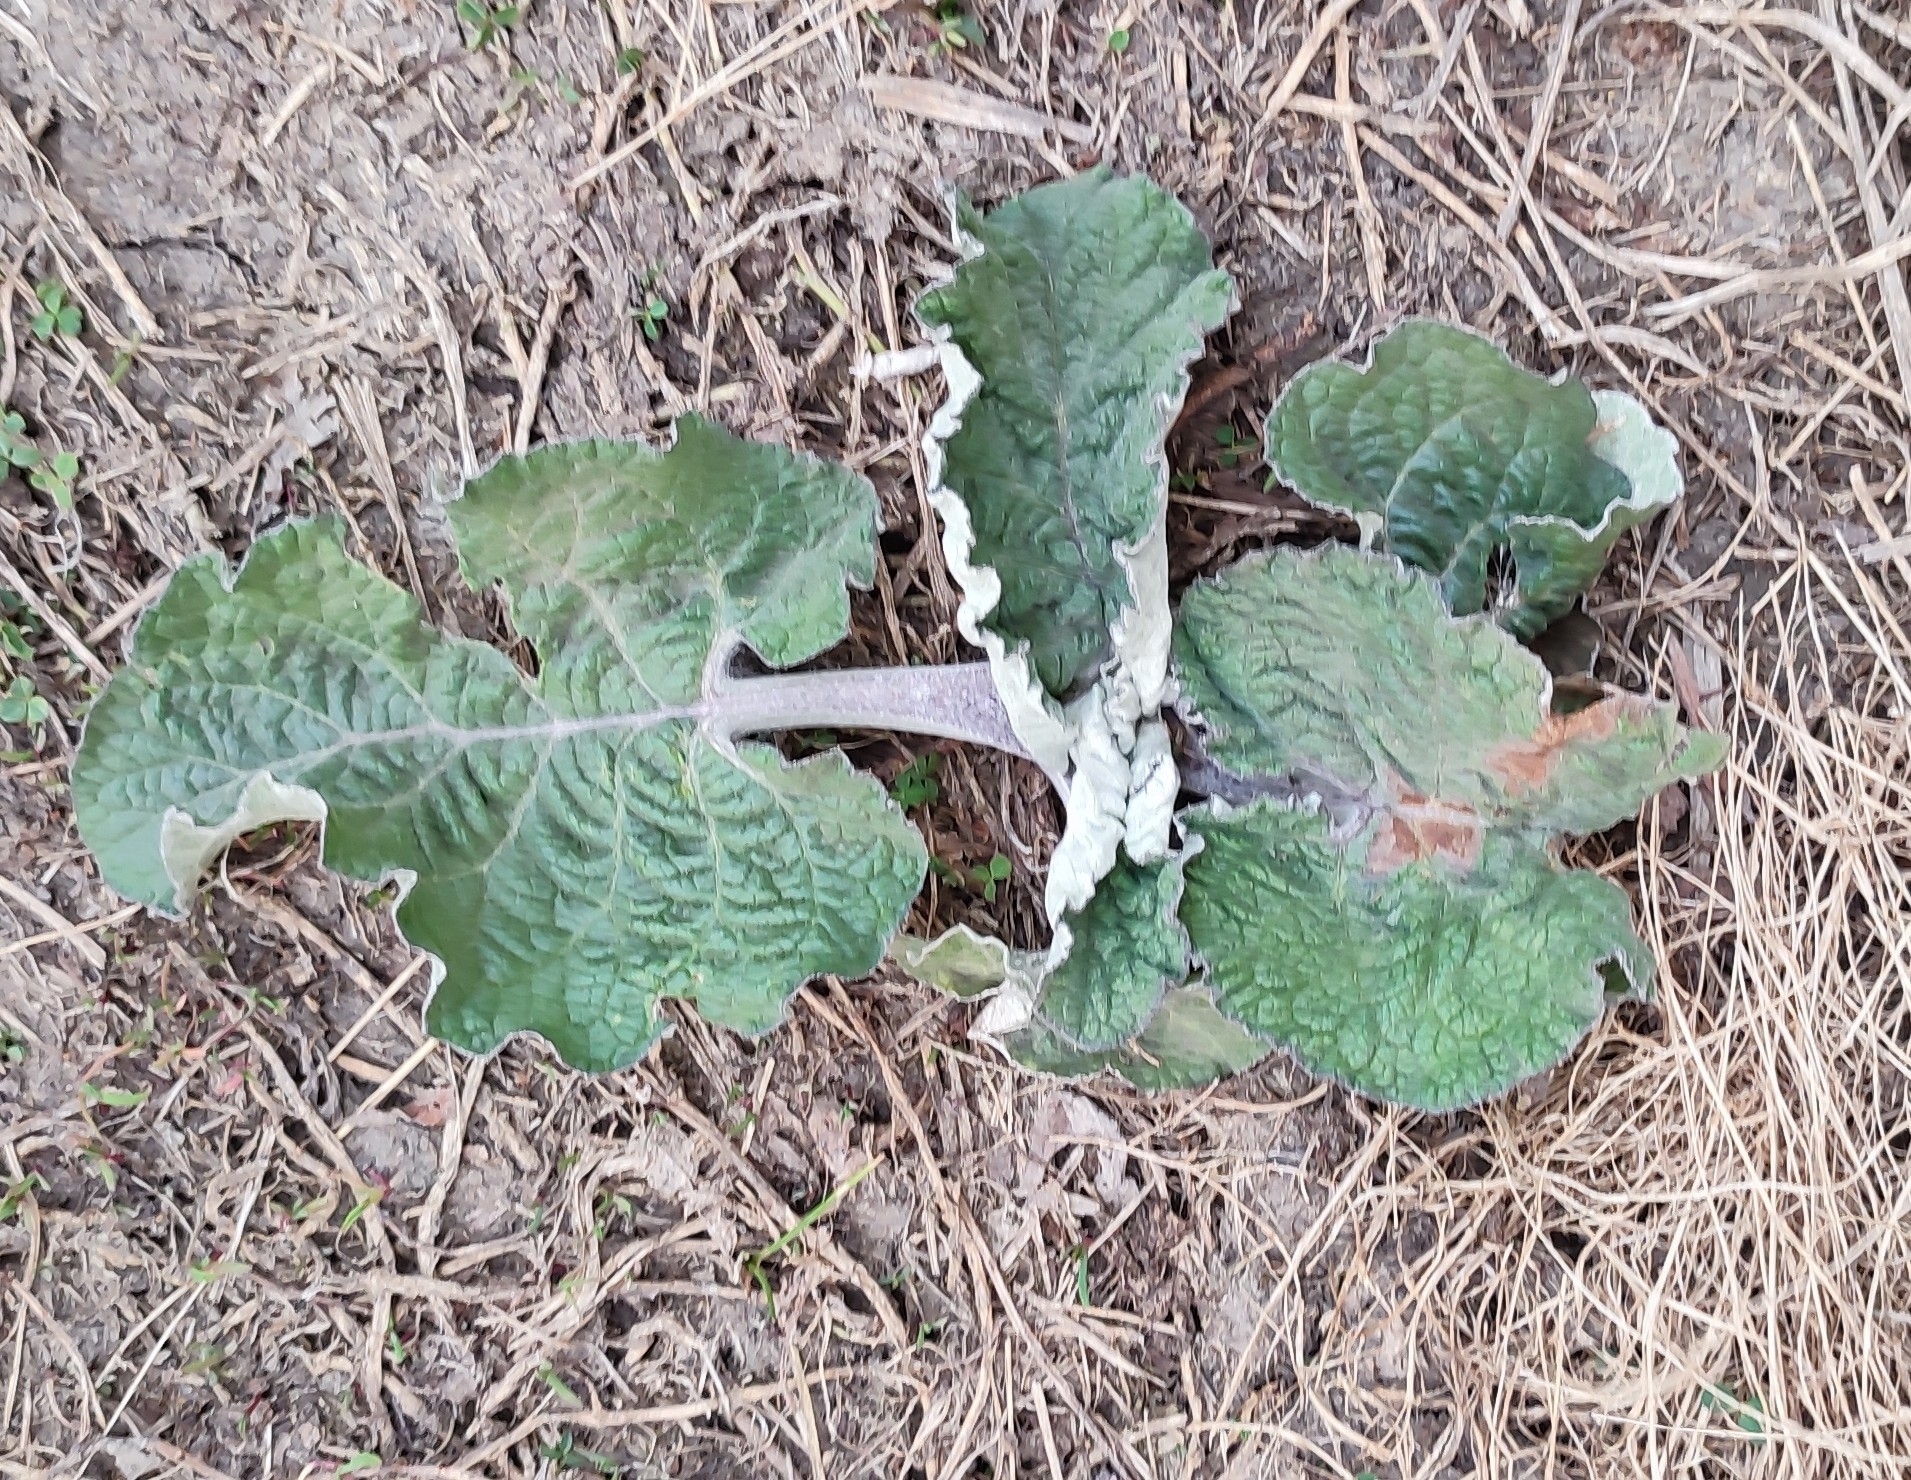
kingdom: Plantae
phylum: Tracheophyta
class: Magnoliopsida
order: Asterales
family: Asteraceae
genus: Arctium
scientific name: Arctium tomentosum
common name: Woolly burdock
